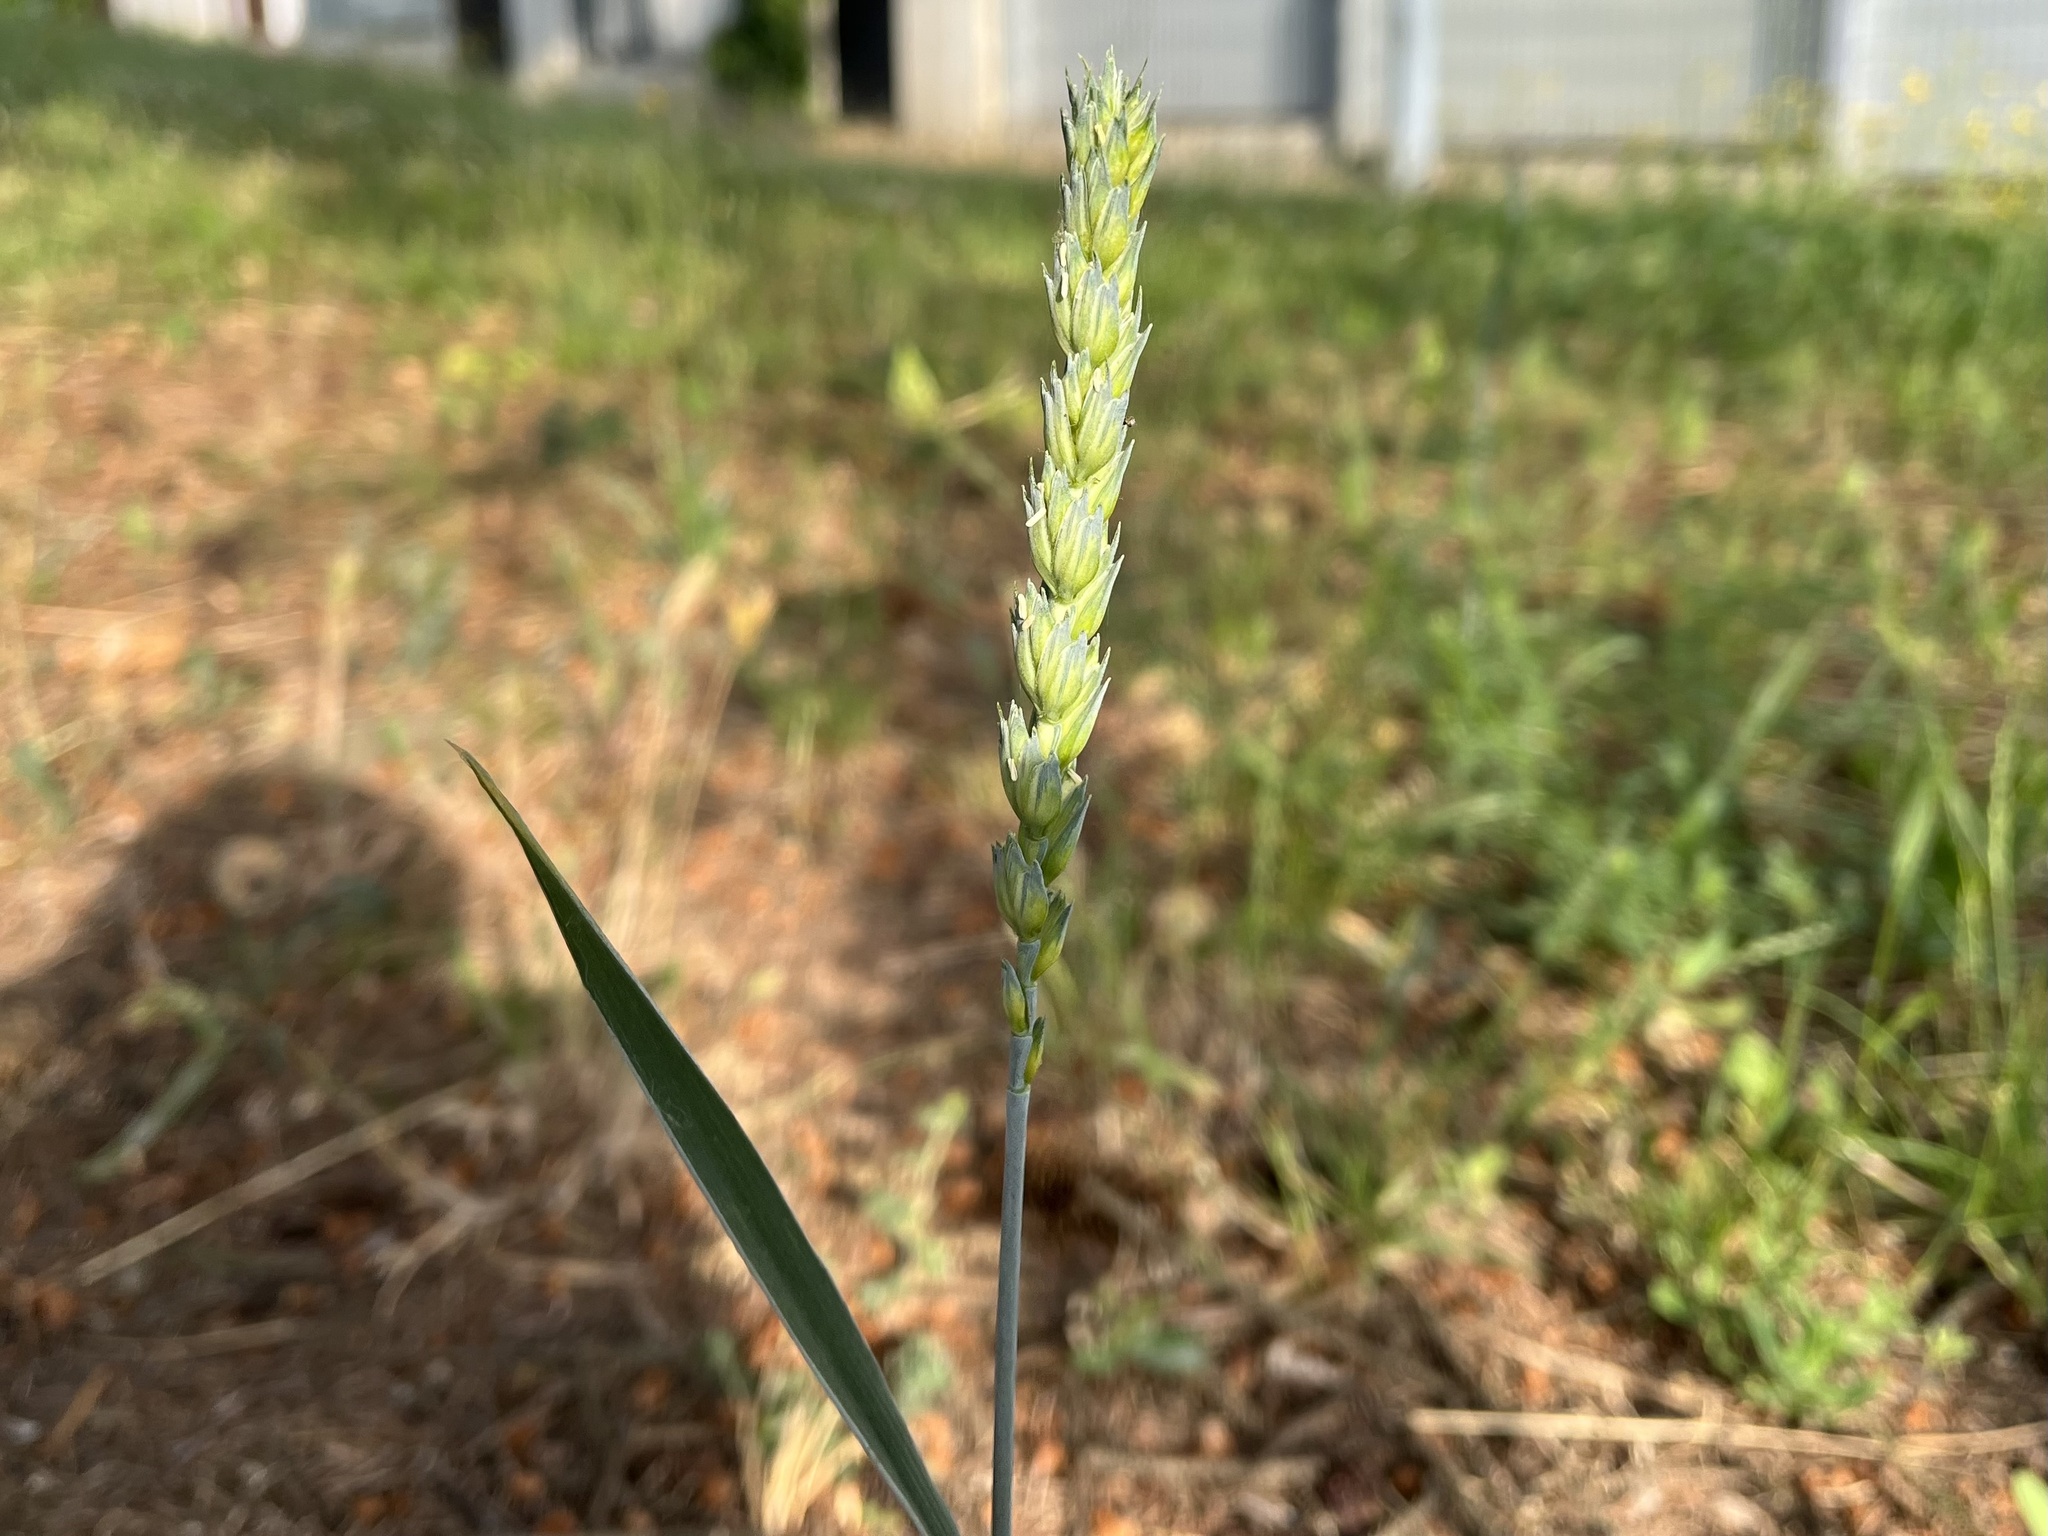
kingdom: Plantae
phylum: Tracheophyta
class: Liliopsida
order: Poales
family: Poaceae
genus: Triticum
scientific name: Triticum aestivum
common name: Common wheat
